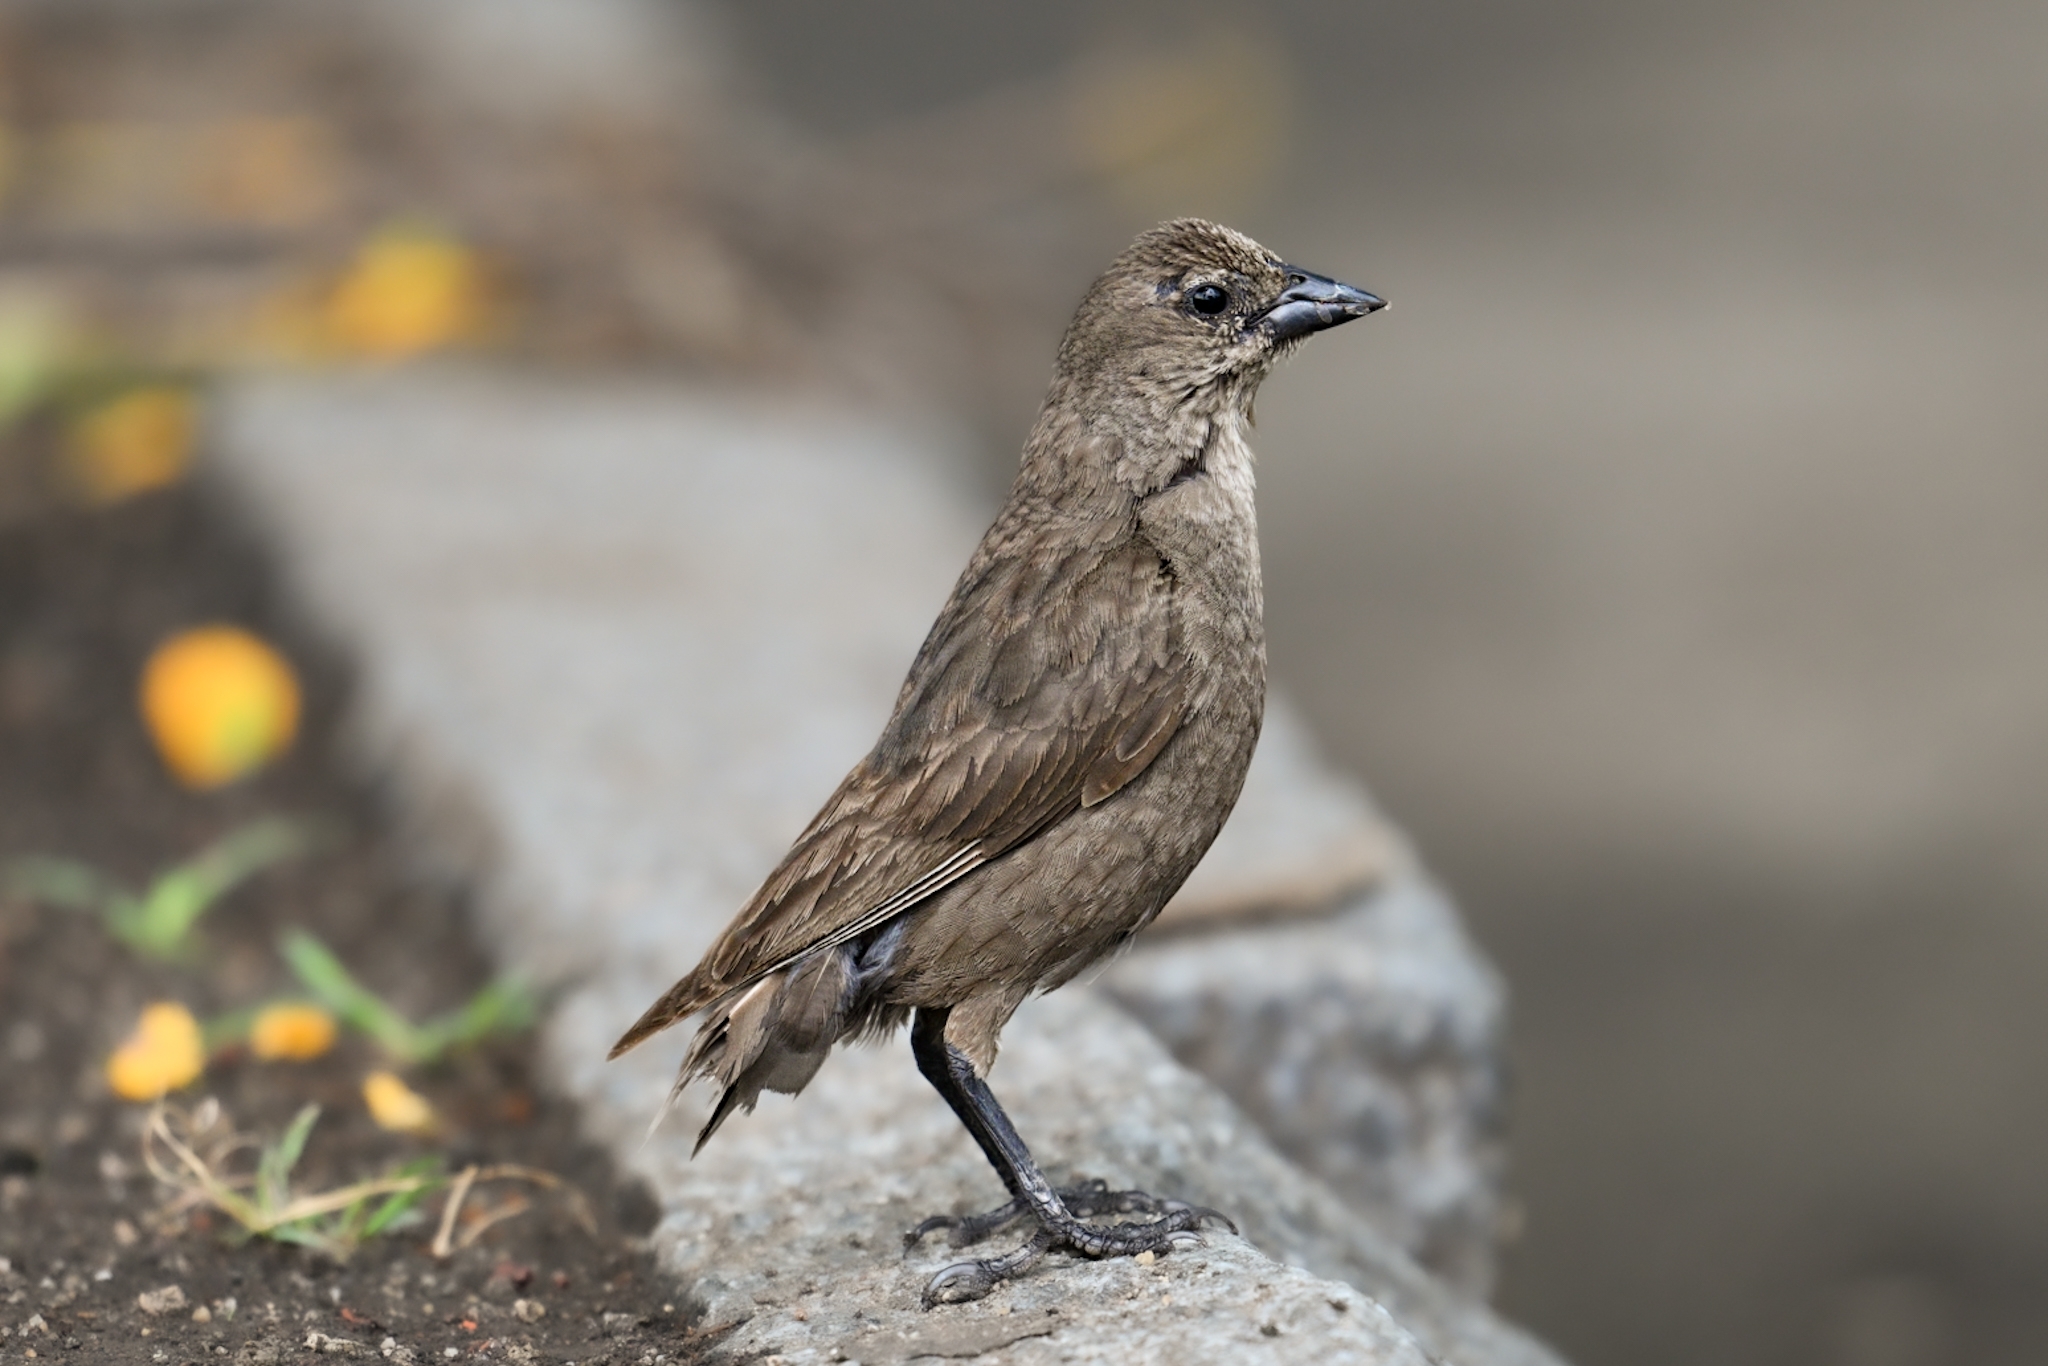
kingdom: Animalia
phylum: Chordata
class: Aves
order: Passeriformes
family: Icteridae
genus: Molothrus
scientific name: Molothrus bonariensis
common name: Shiny cowbird
